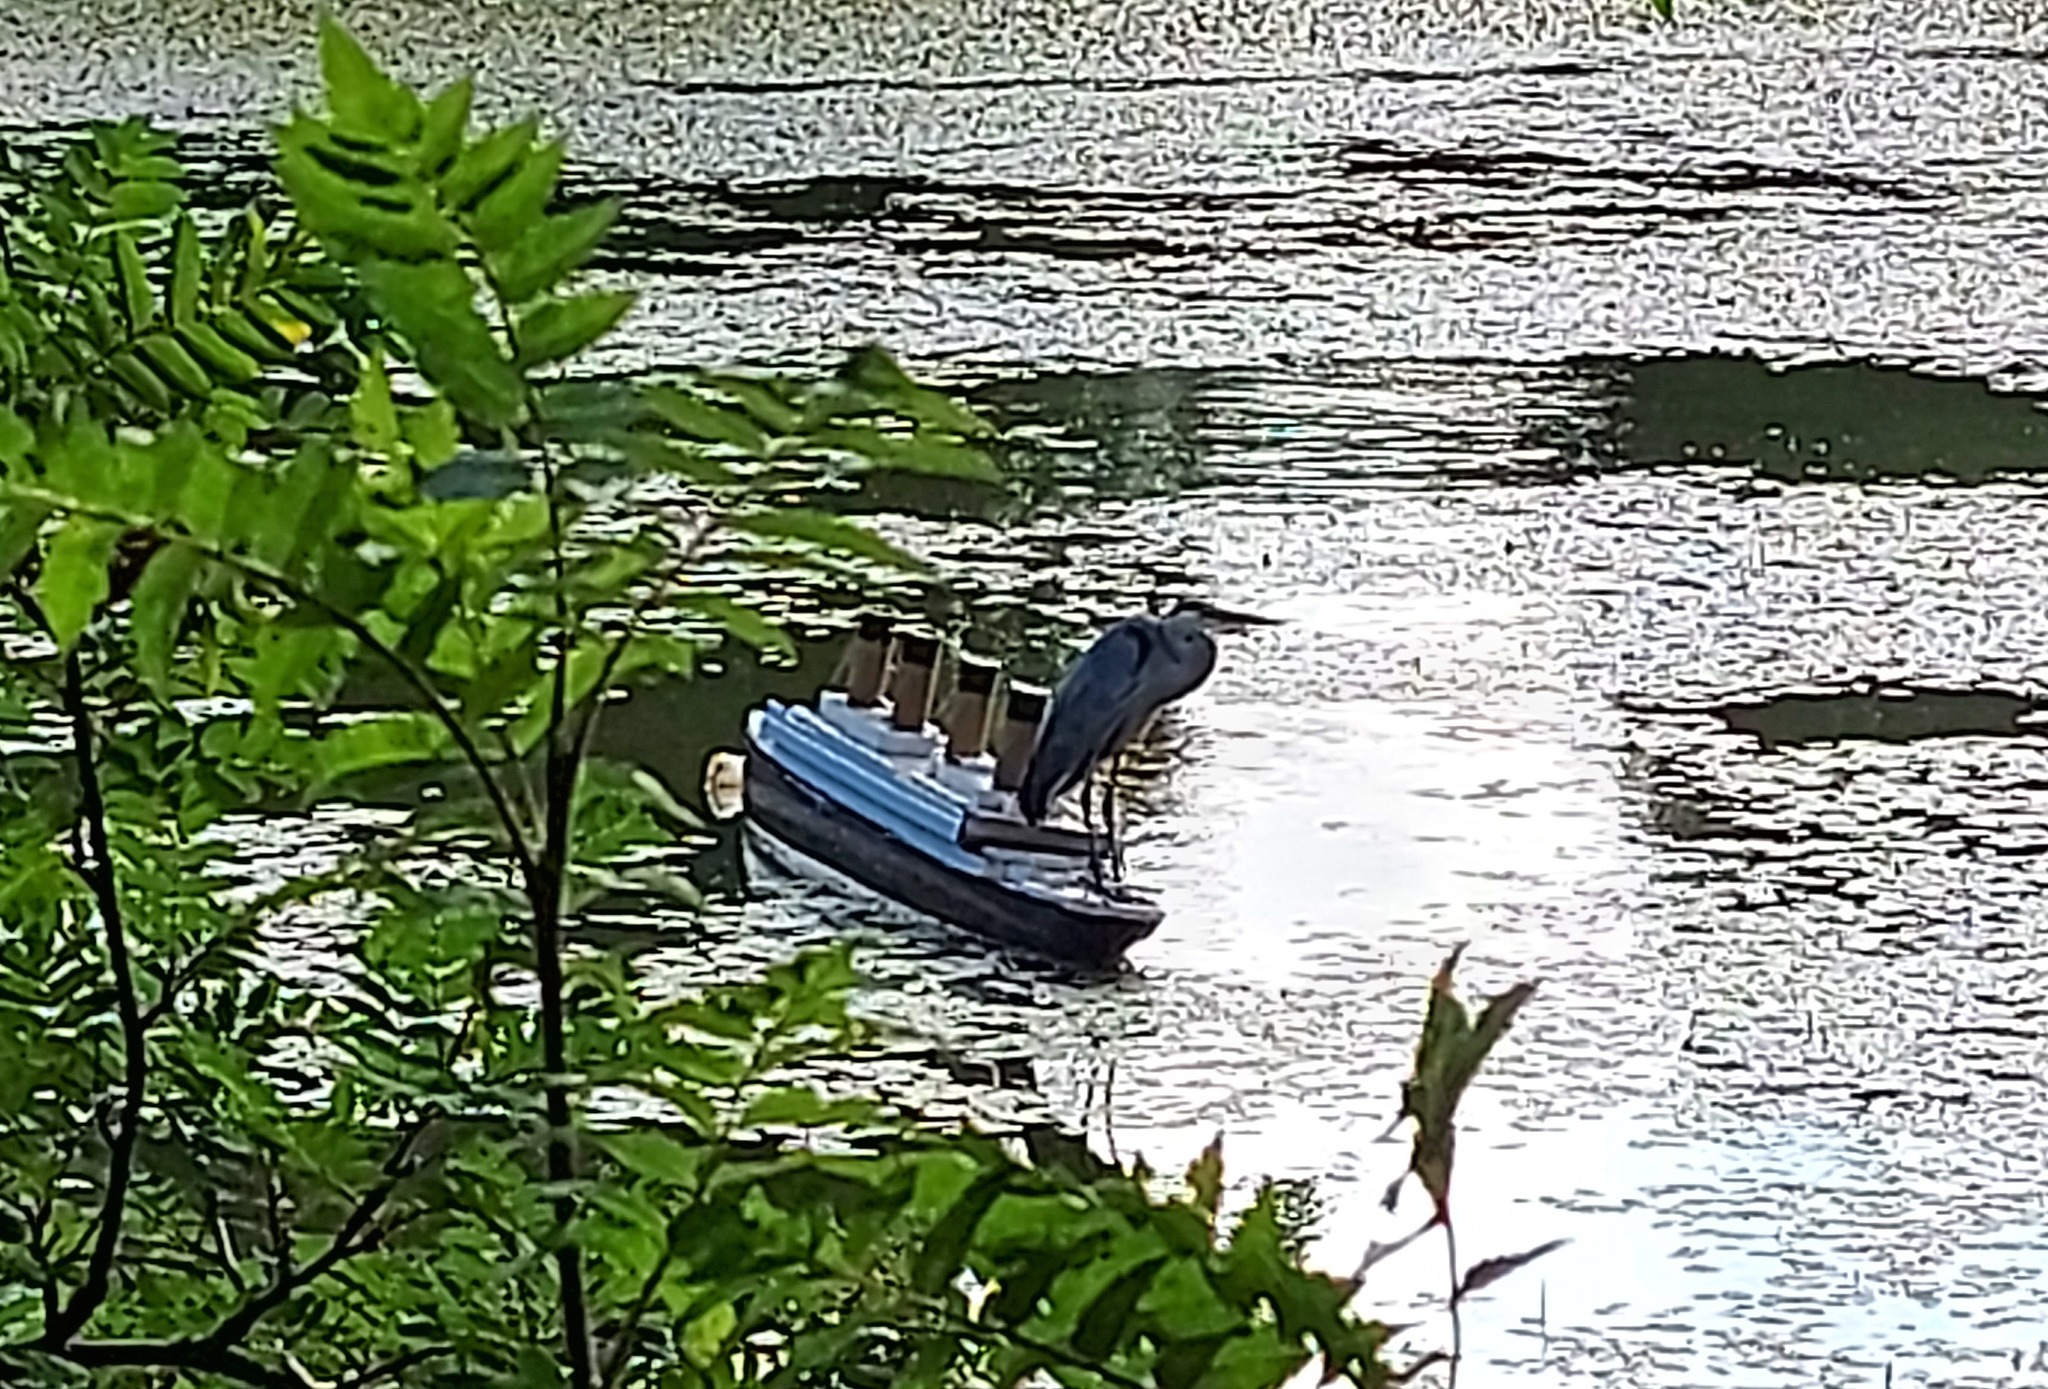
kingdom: Animalia
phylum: Chordata
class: Aves
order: Pelecaniformes
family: Ardeidae
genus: Ardea
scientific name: Ardea herodias
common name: Great blue heron
